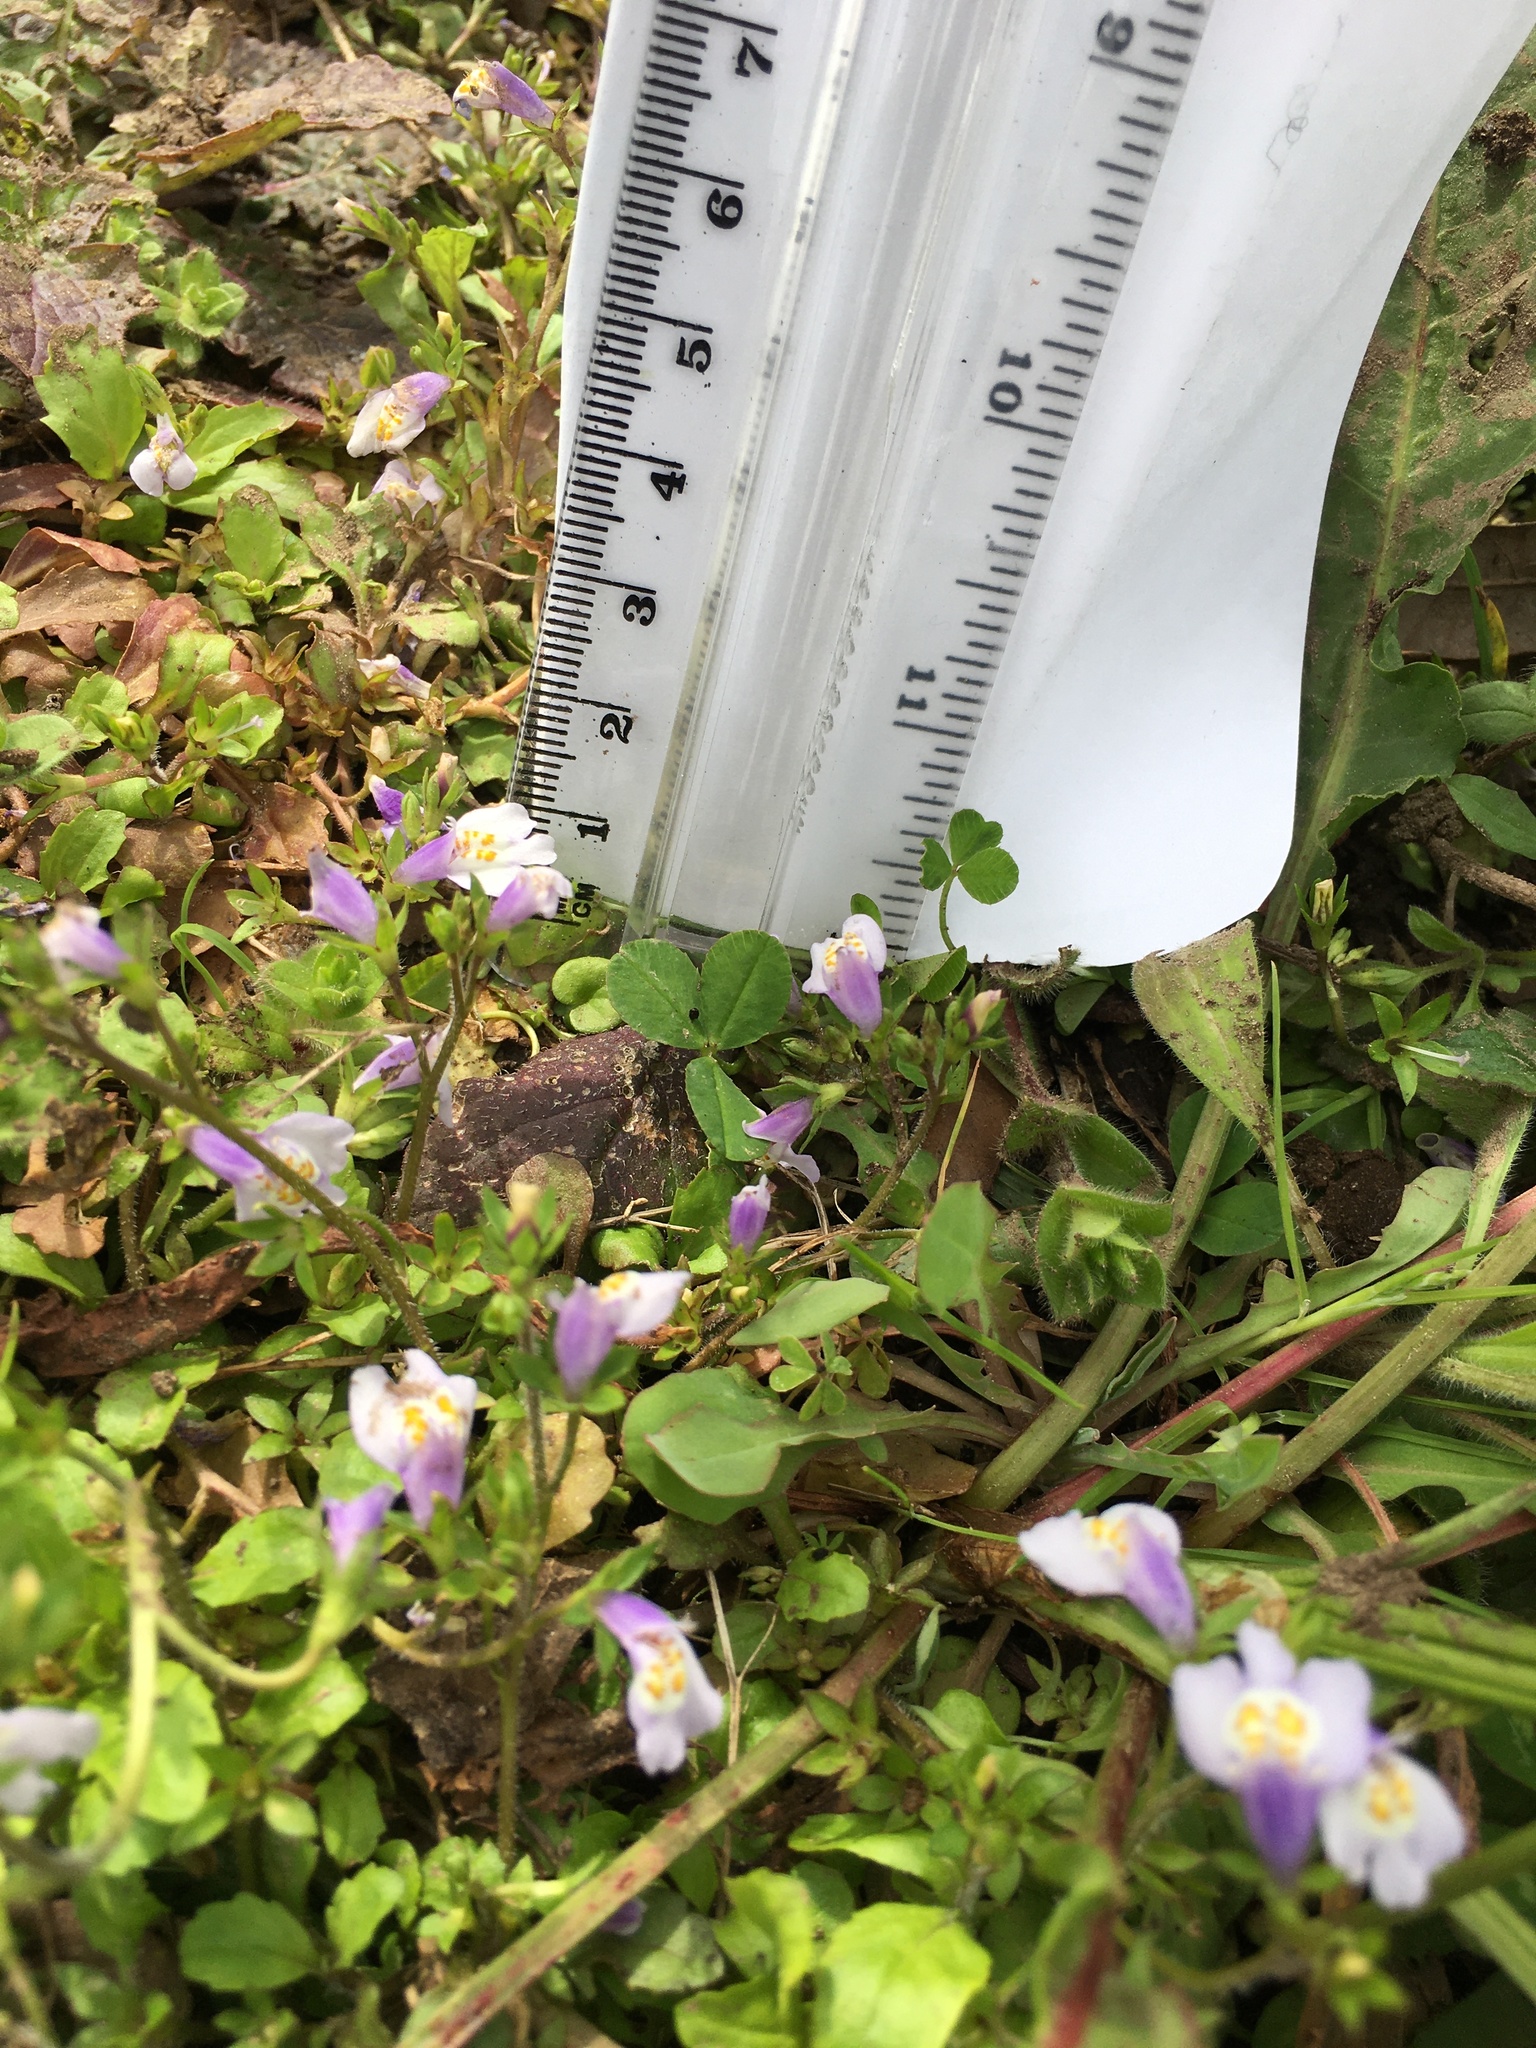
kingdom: Plantae
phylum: Tracheophyta
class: Magnoliopsida
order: Lamiales
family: Mazaceae
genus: Mazus
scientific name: Mazus pumilus
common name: Japanese mazus
